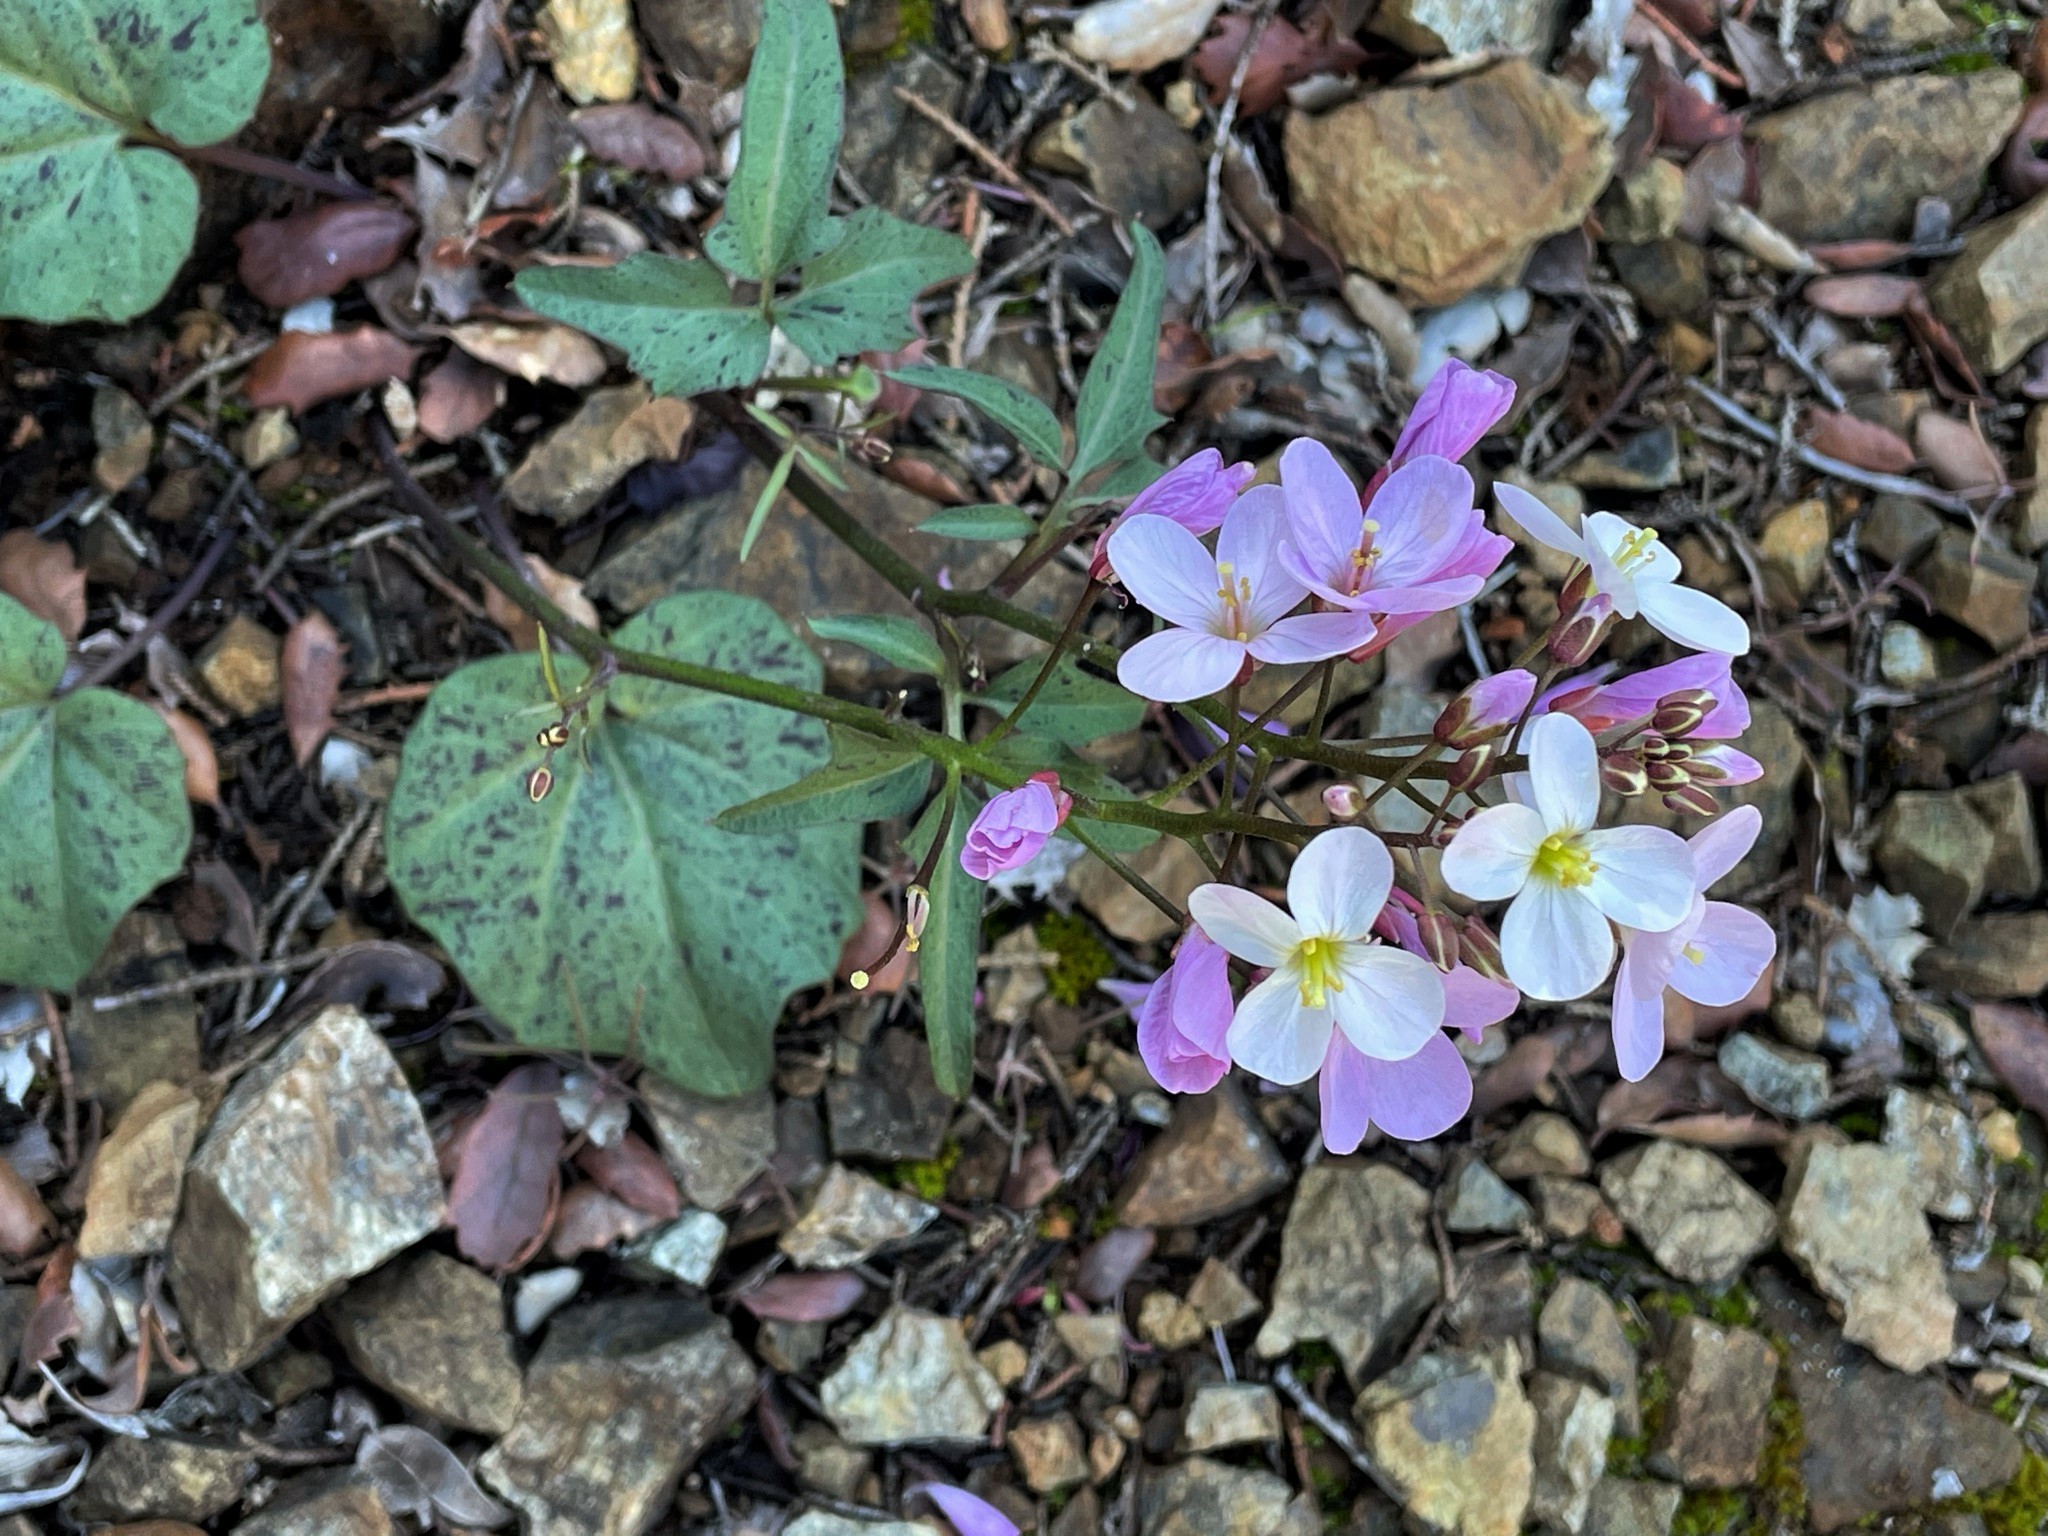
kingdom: Plantae
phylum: Tracheophyta
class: Magnoliopsida
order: Brassicales
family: Brassicaceae
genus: Cardamine
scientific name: Cardamine californica
